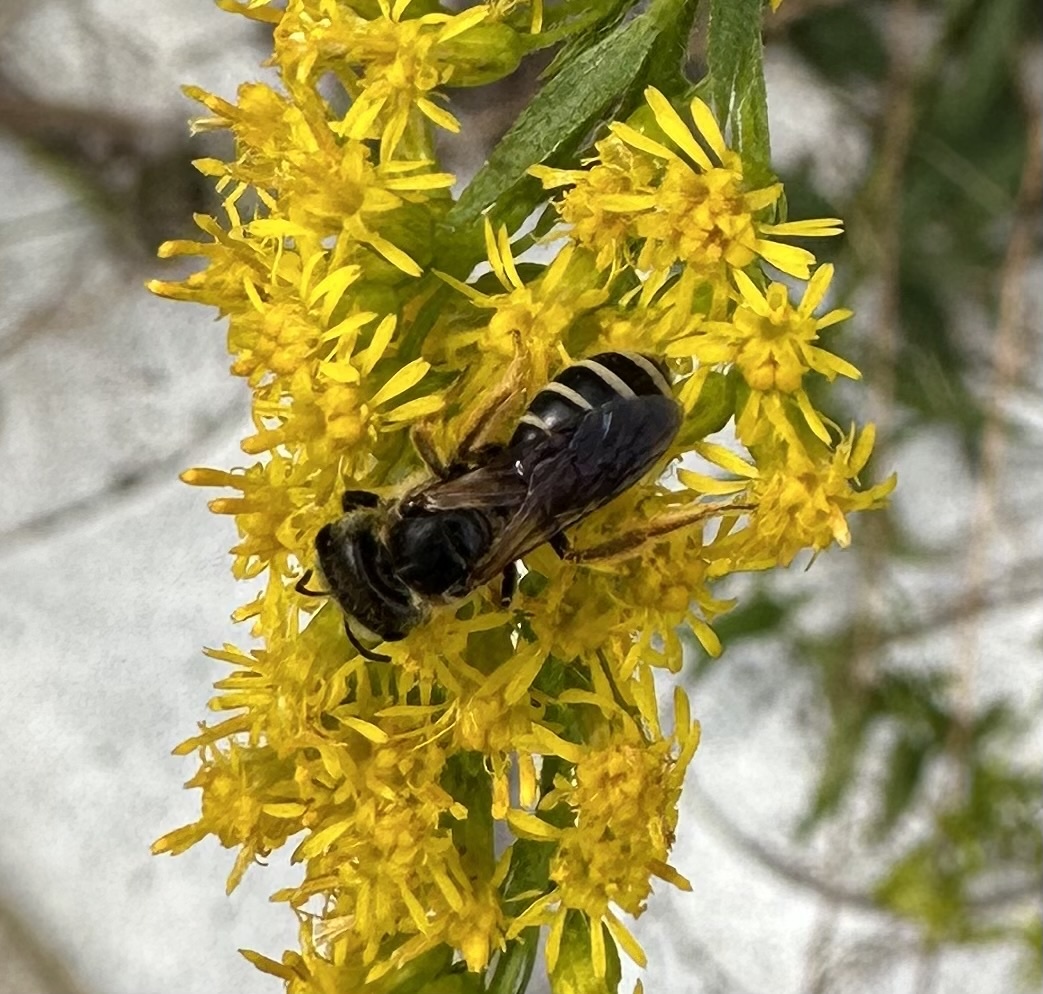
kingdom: Animalia
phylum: Arthropoda
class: Insecta
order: Hymenoptera
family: Halictidae
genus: Halictus
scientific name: Halictus ligatus
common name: Ligated furrow bee
